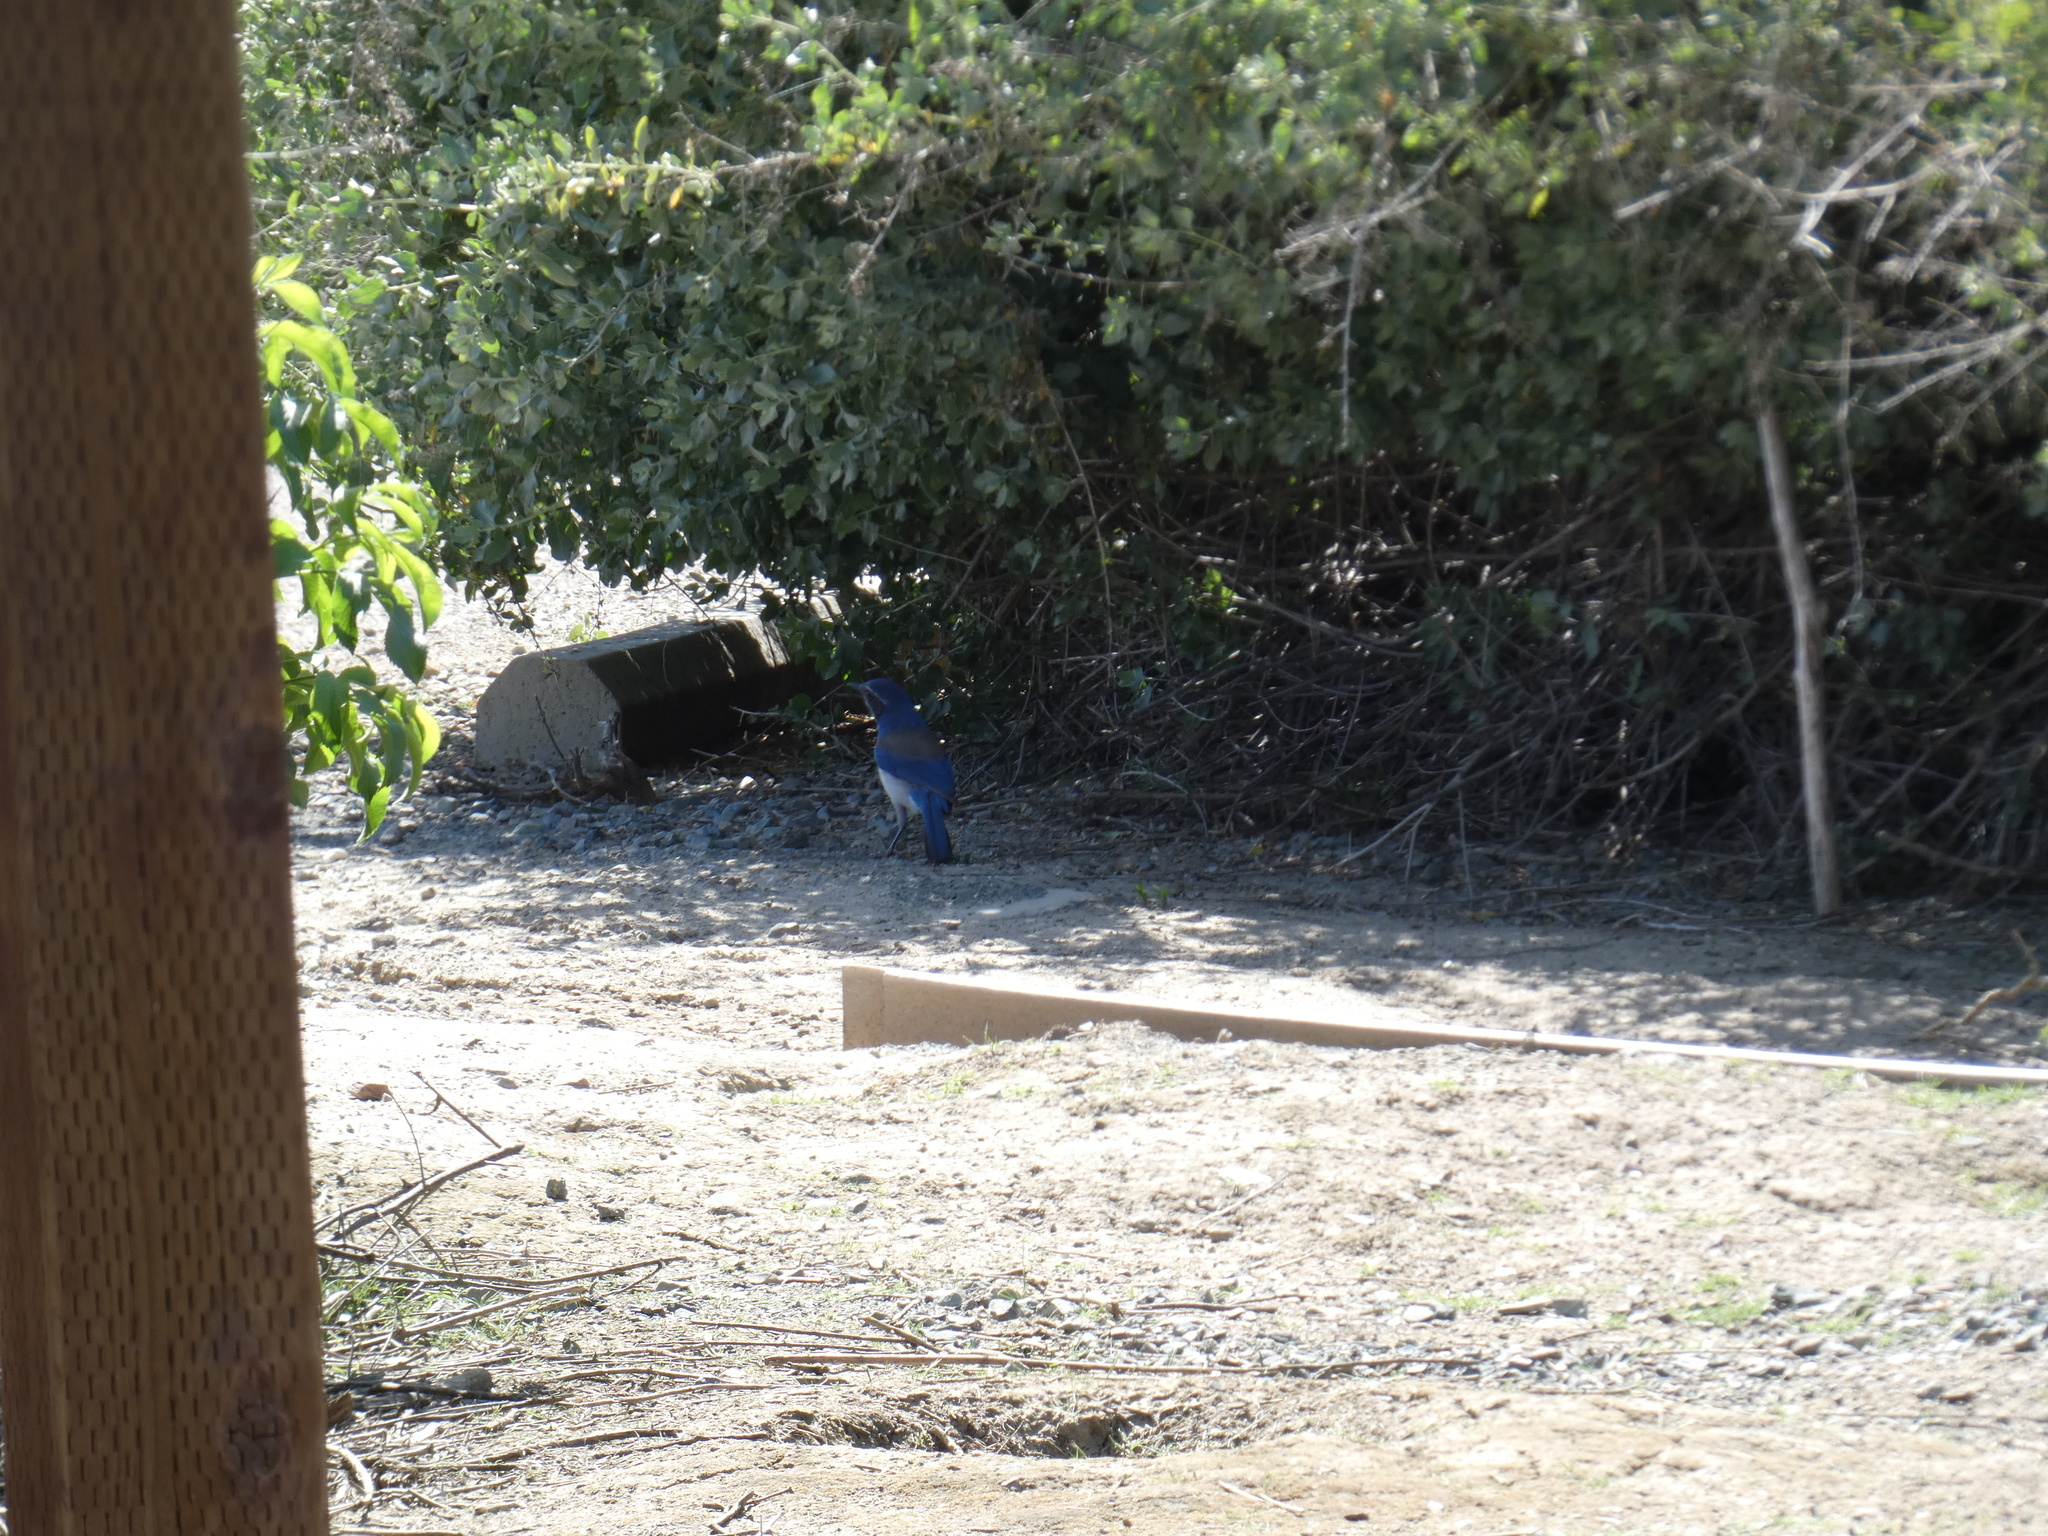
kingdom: Animalia
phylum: Chordata
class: Aves
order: Passeriformes
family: Corvidae
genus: Aphelocoma
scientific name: Aphelocoma californica
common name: California scrub-jay
